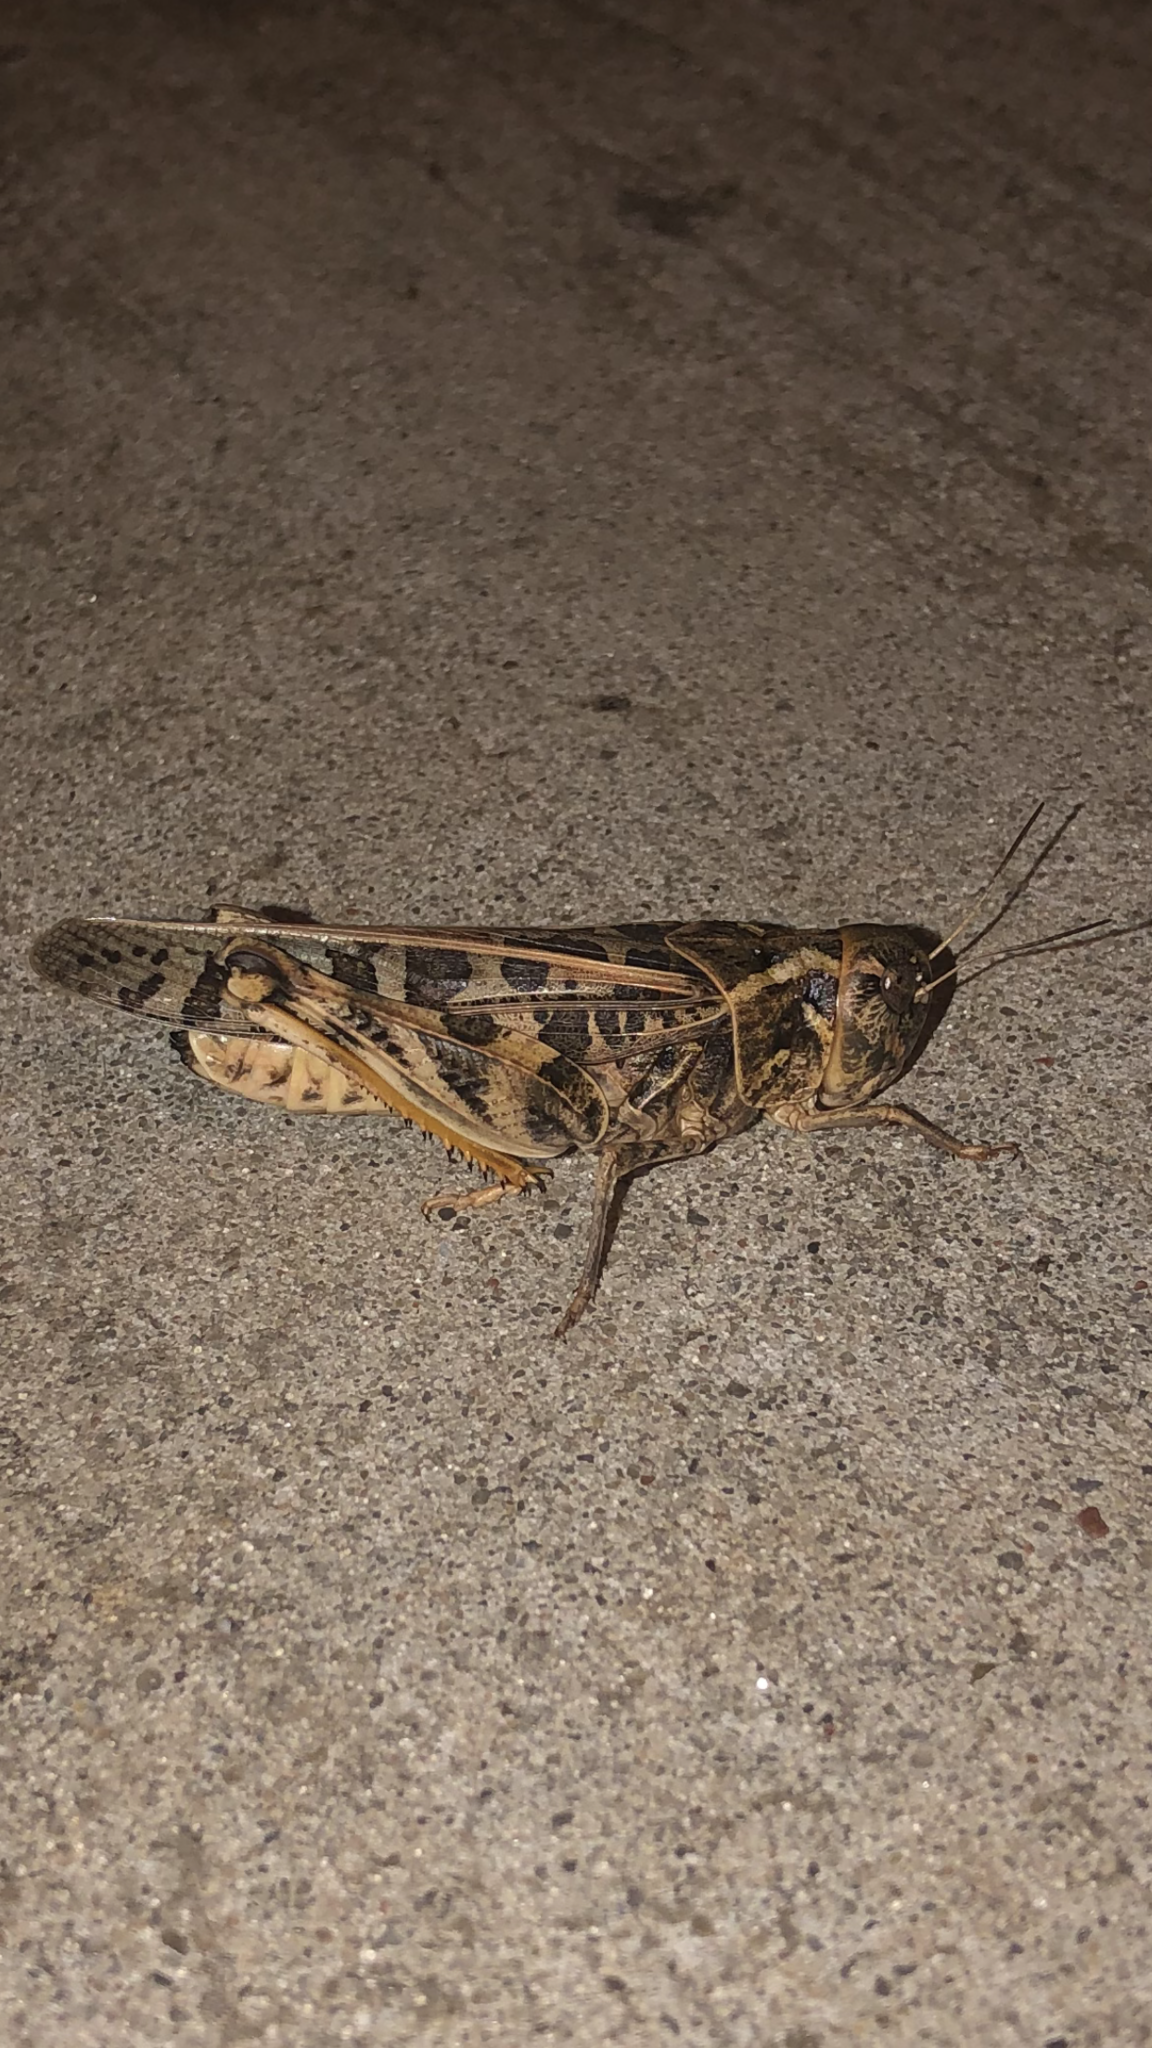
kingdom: Animalia
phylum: Arthropoda
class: Insecta
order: Orthoptera
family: Acrididae
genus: Hippiscus
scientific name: Hippiscus ocelote
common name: Wrinkled grasshopper
